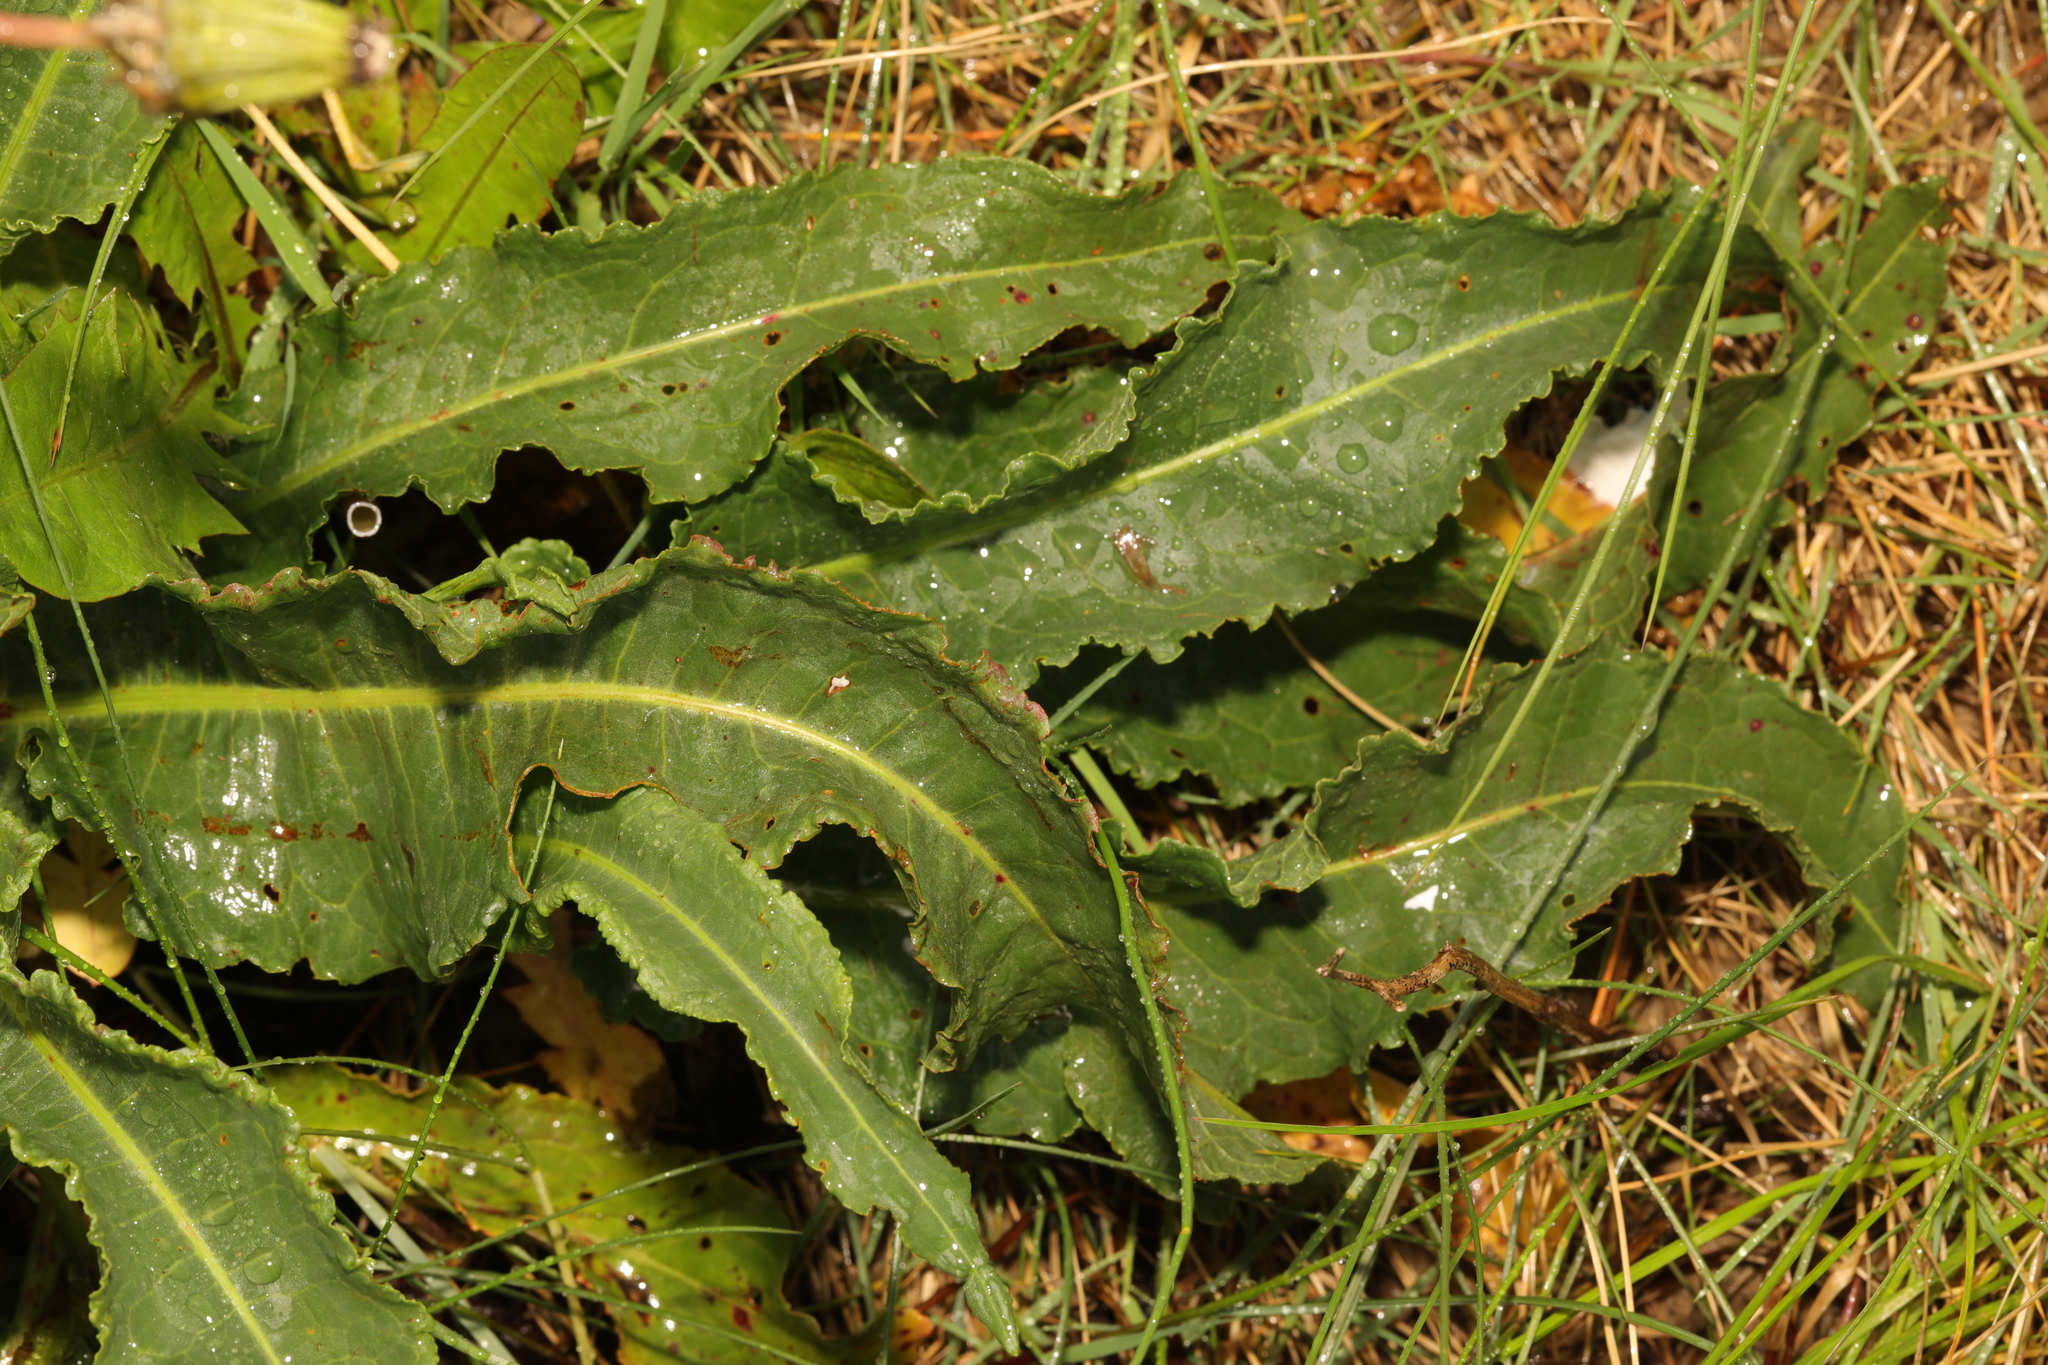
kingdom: Plantae
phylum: Tracheophyta
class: Magnoliopsida
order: Caryophyllales
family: Polygonaceae
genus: Rumex
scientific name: Rumex crispus
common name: Curled dock
